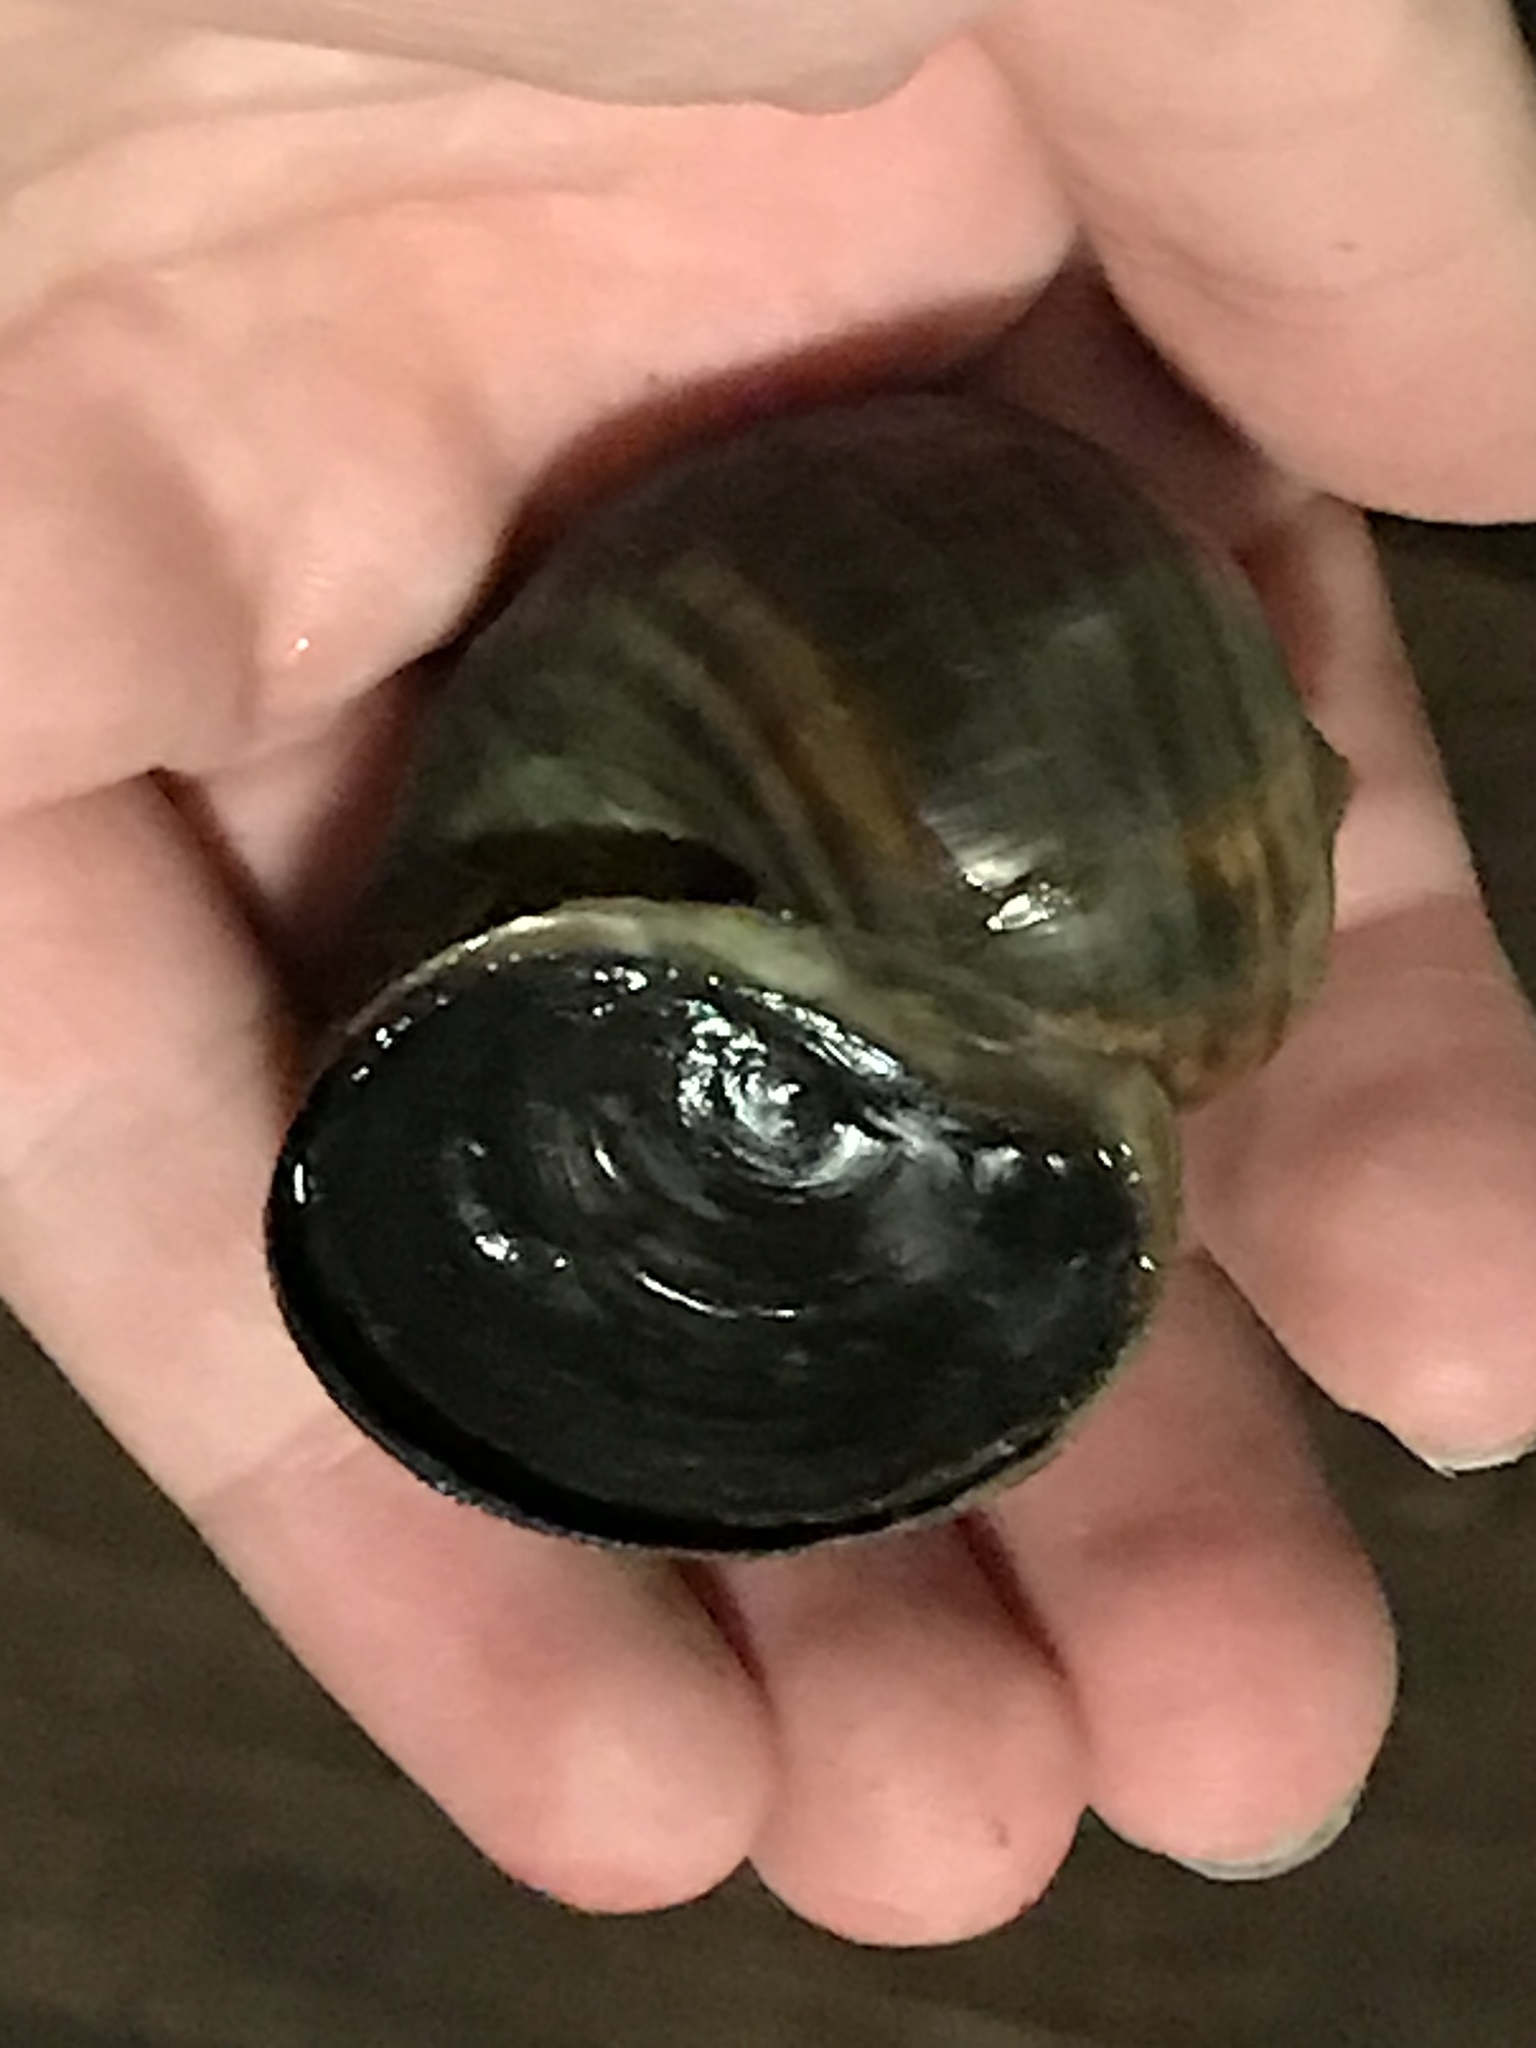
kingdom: Animalia
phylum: Mollusca
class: Gastropoda
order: Architaenioglossa
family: Ampullariidae
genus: Pomacea
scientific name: Pomacea canaliculata
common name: Channeled applesnail
